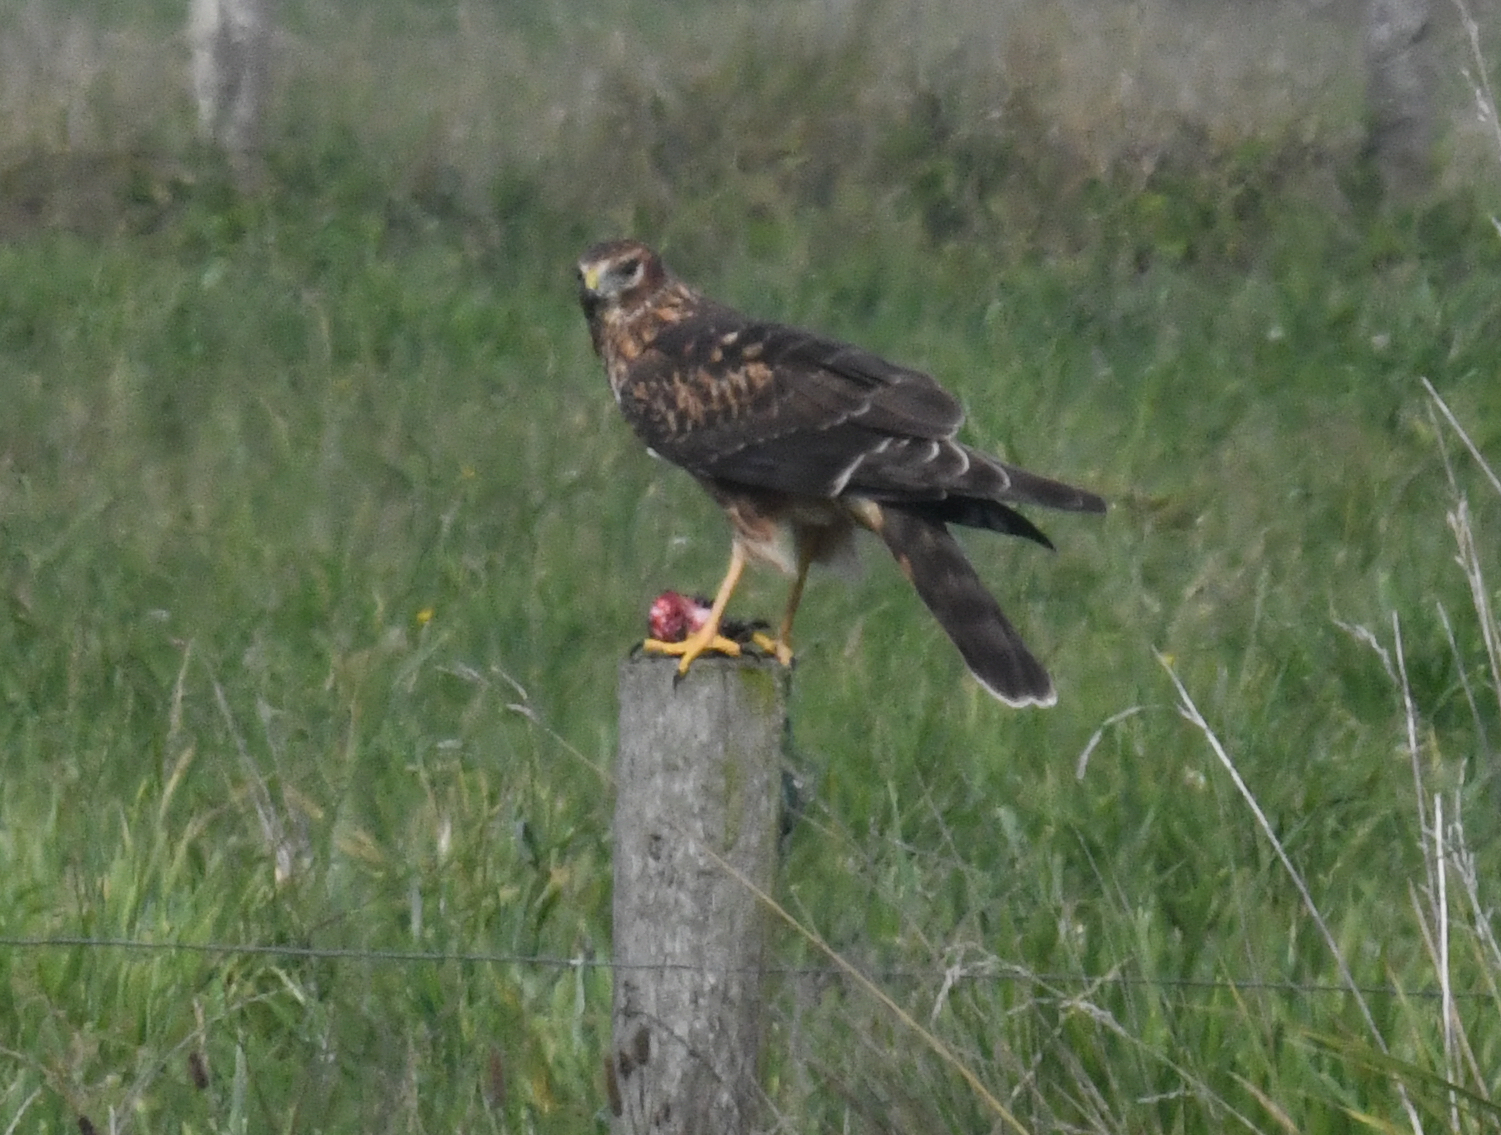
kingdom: Animalia
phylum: Chordata
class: Aves
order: Accipitriformes
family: Accipitridae
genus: Circus
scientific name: Circus cyaneus
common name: Hen harrier
